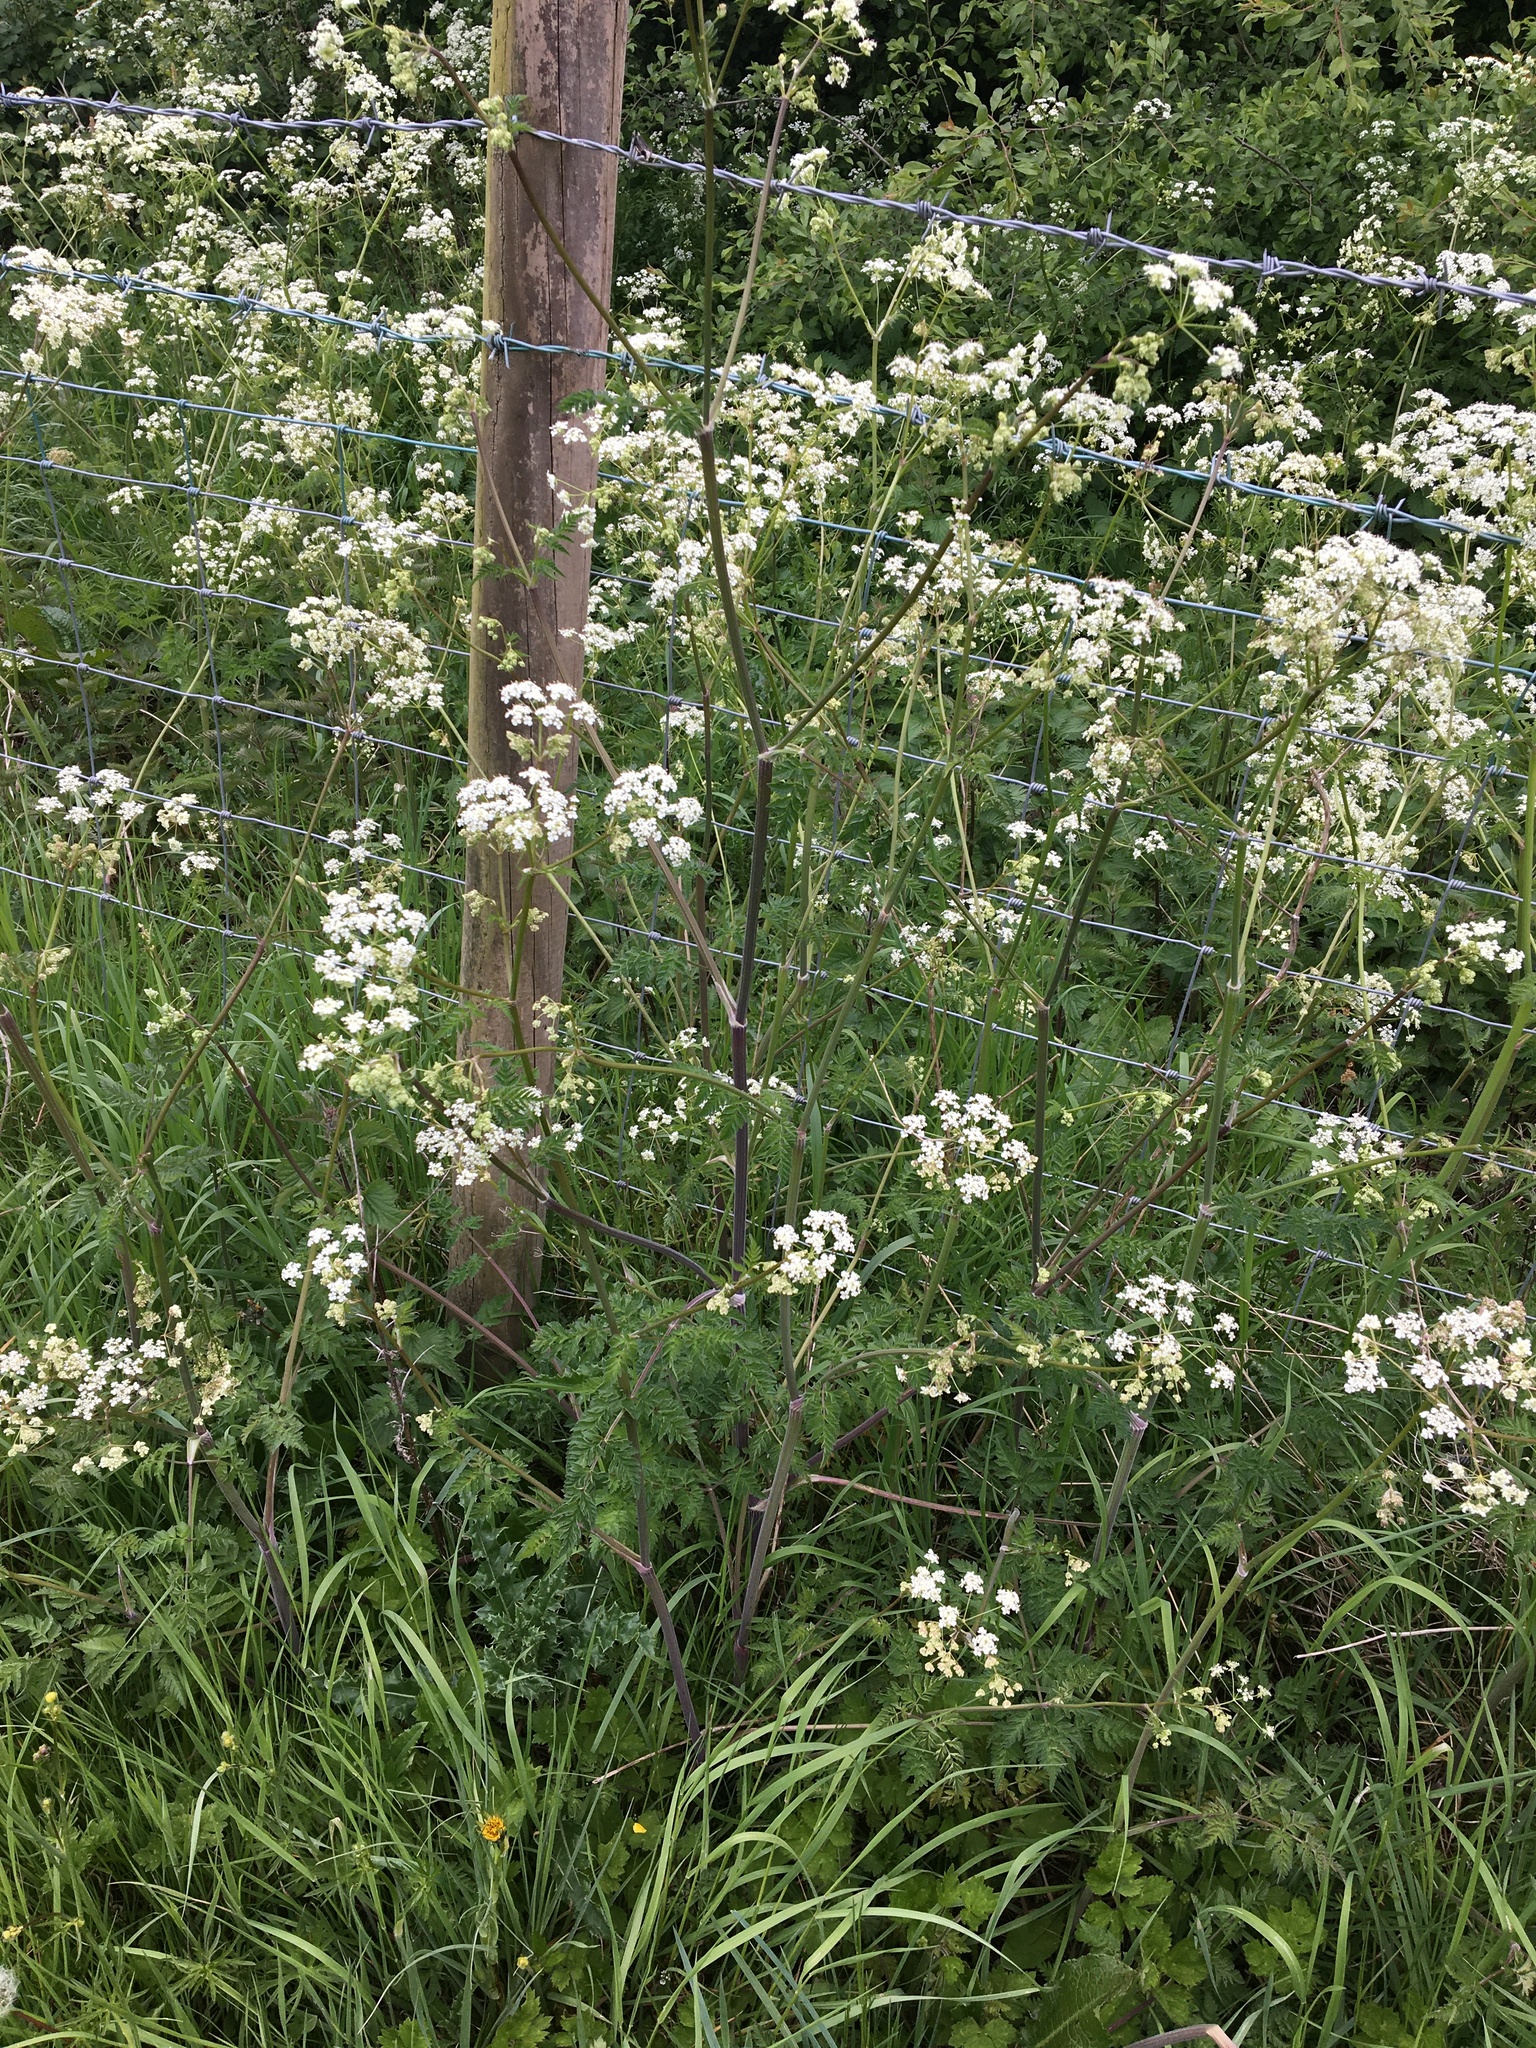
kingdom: Plantae
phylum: Tracheophyta
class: Magnoliopsida
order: Apiales
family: Apiaceae
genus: Anthriscus
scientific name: Anthriscus sylvestris
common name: Cow parsley
